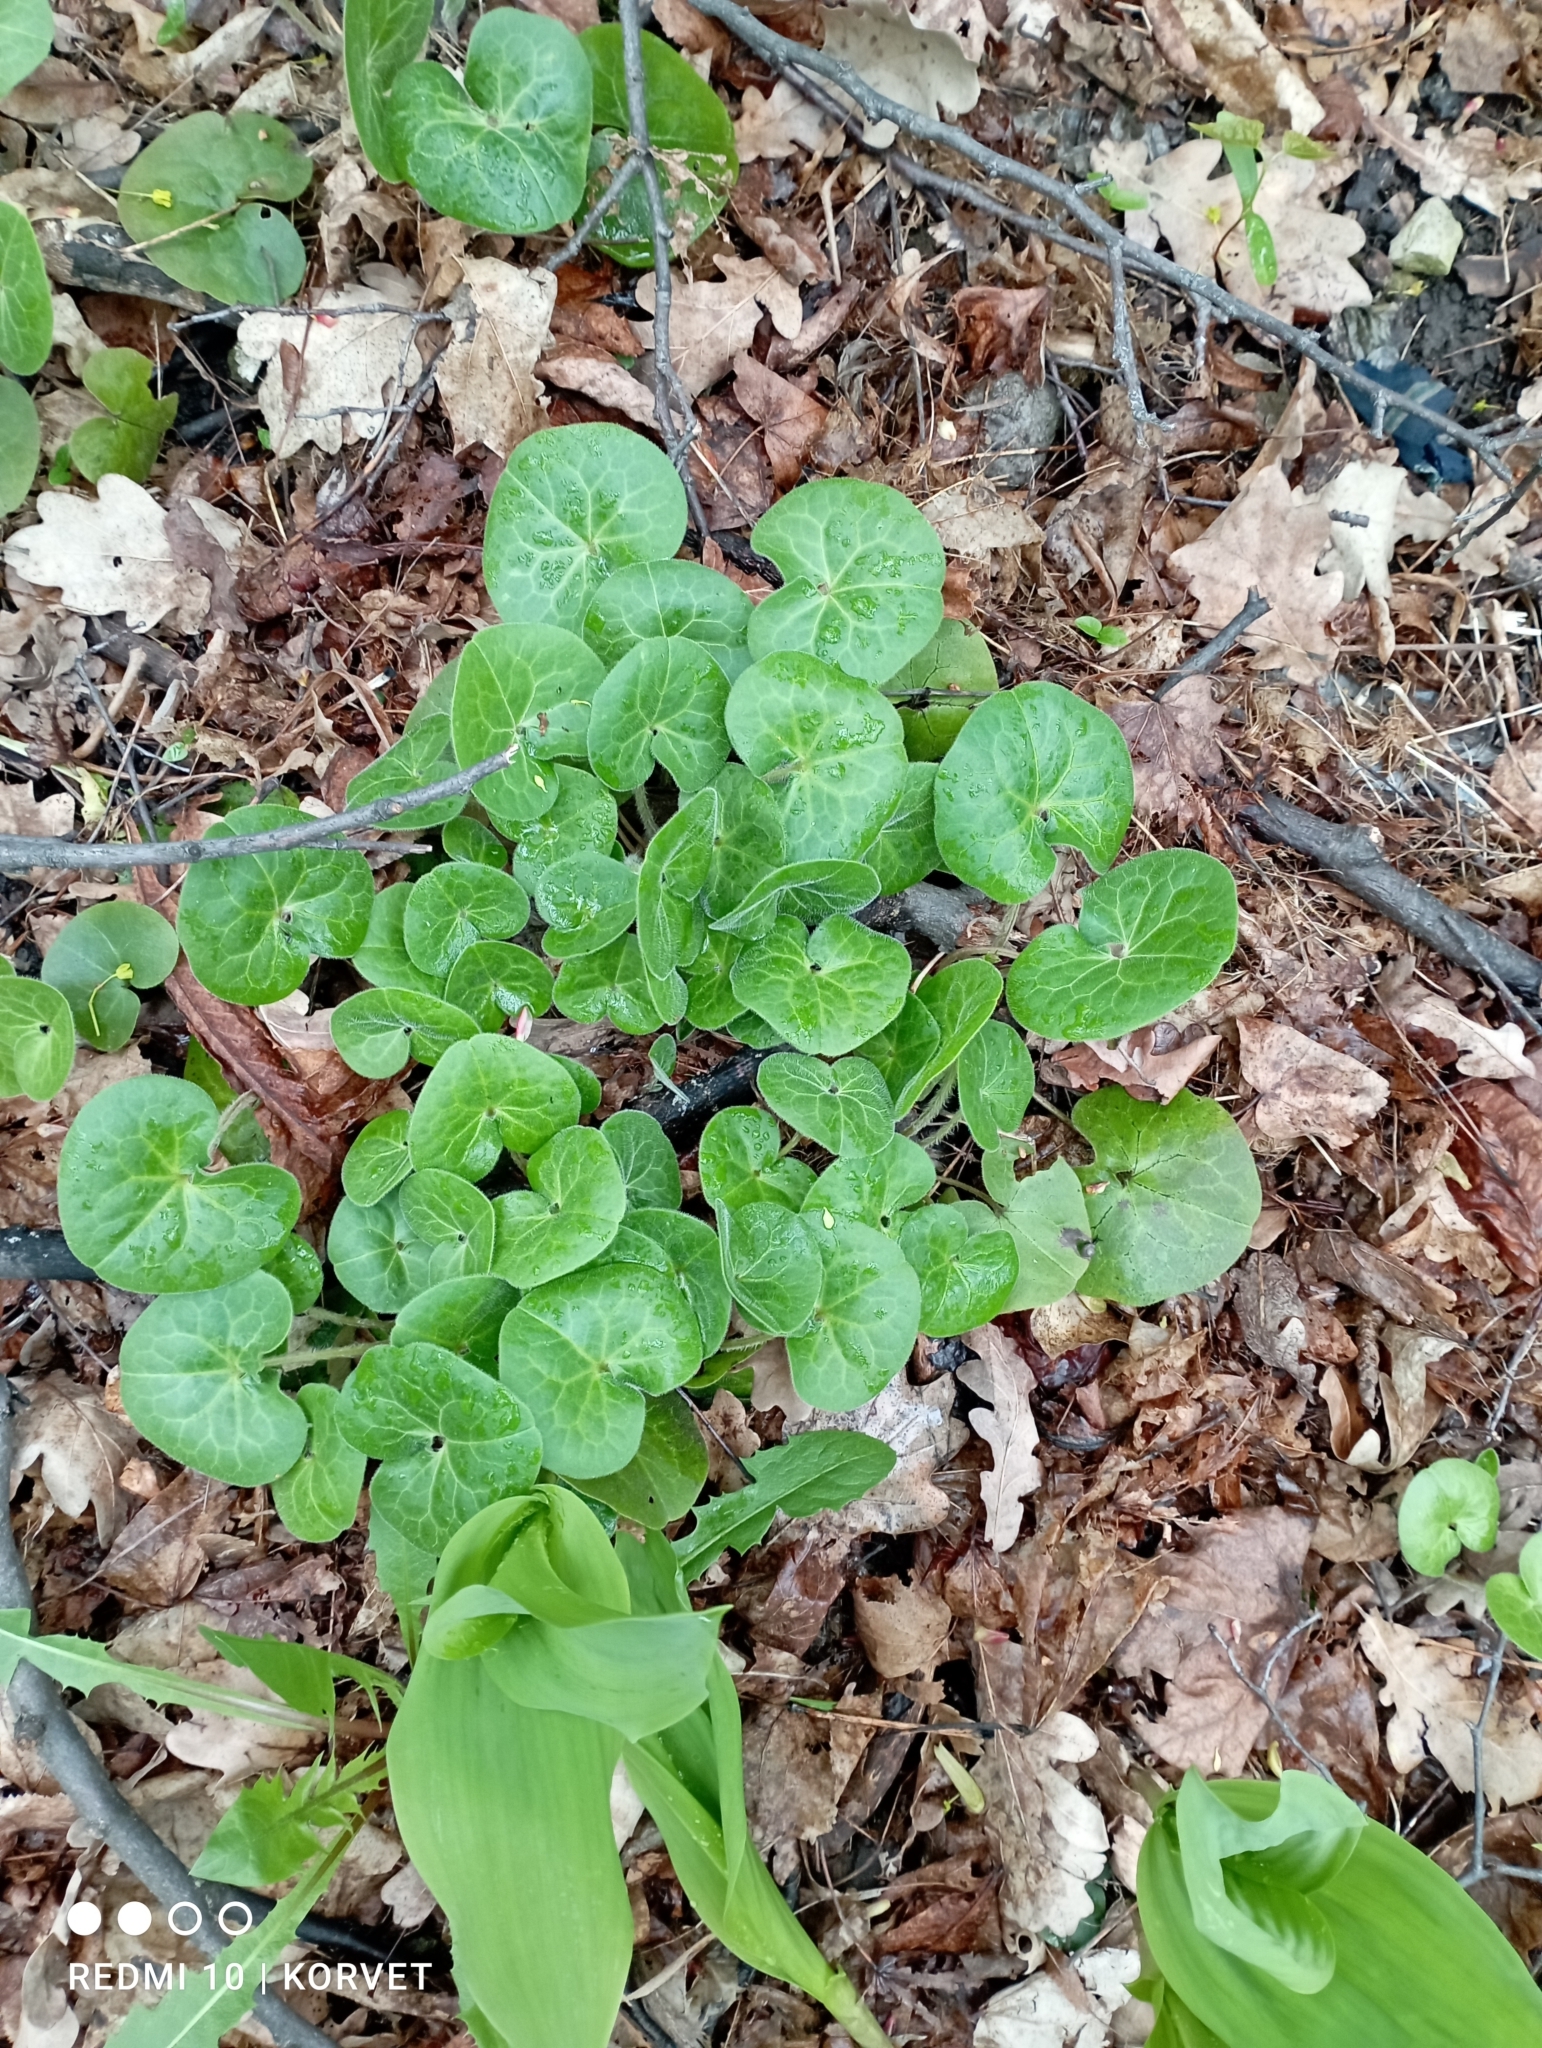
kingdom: Plantae
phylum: Tracheophyta
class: Magnoliopsida
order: Piperales
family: Aristolochiaceae
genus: Asarum
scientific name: Asarum europaeum
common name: Asarabacca
